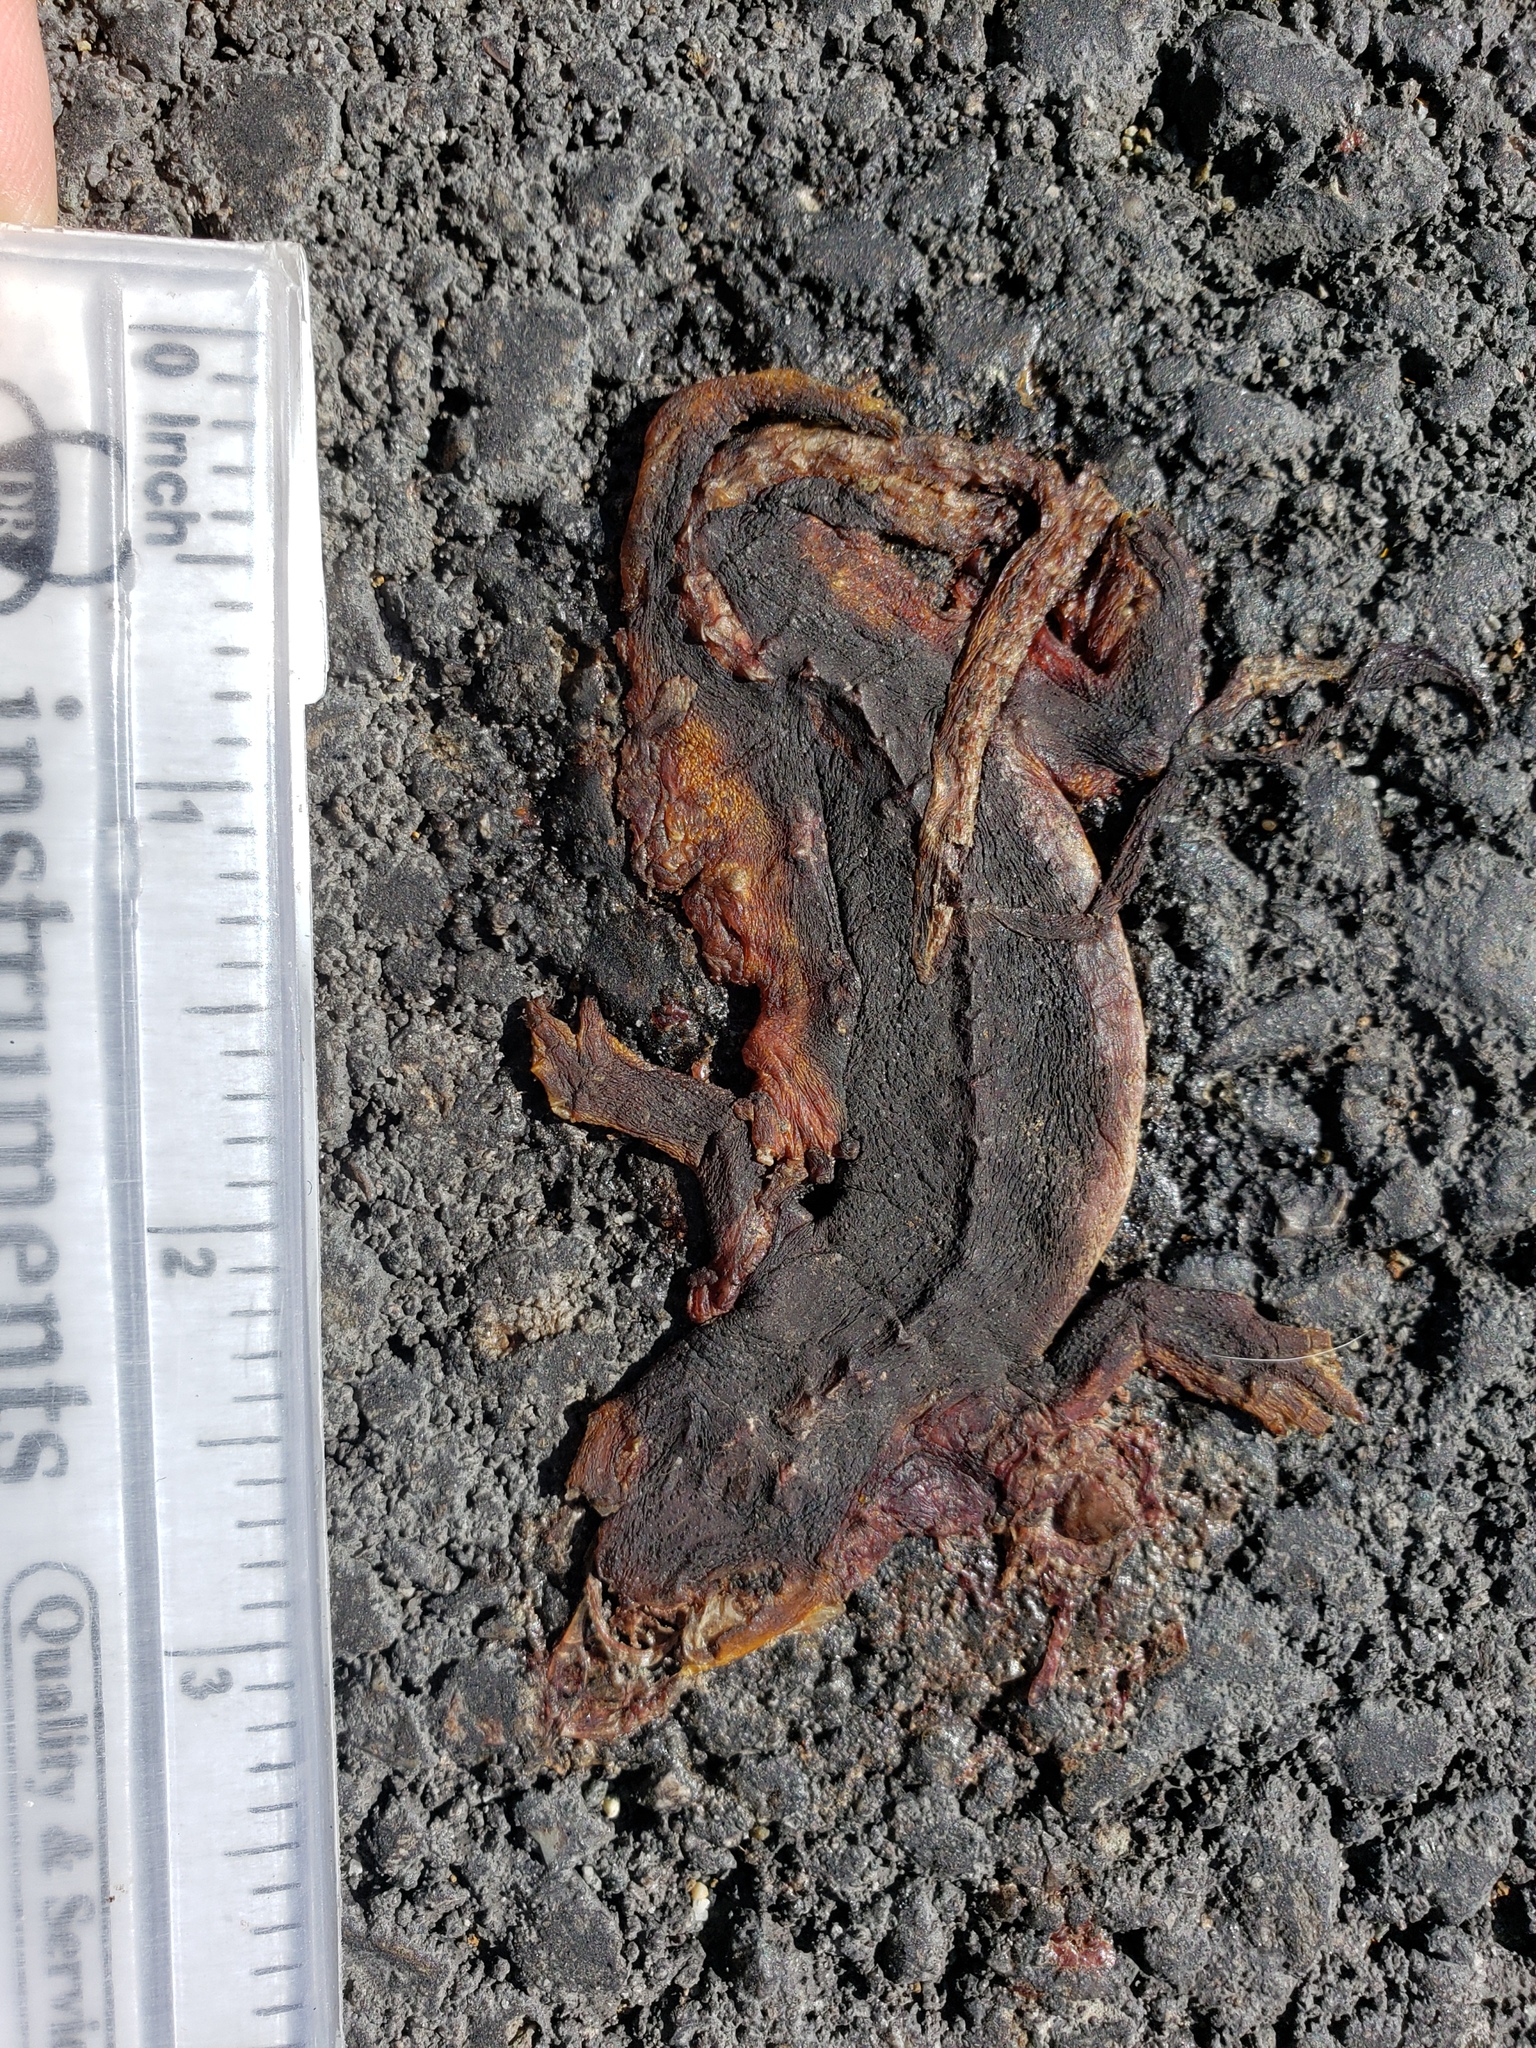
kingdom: Animalia
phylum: Chordata
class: Amphibia
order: Caudata
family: Salamandridae
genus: Taricha
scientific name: Taricha
